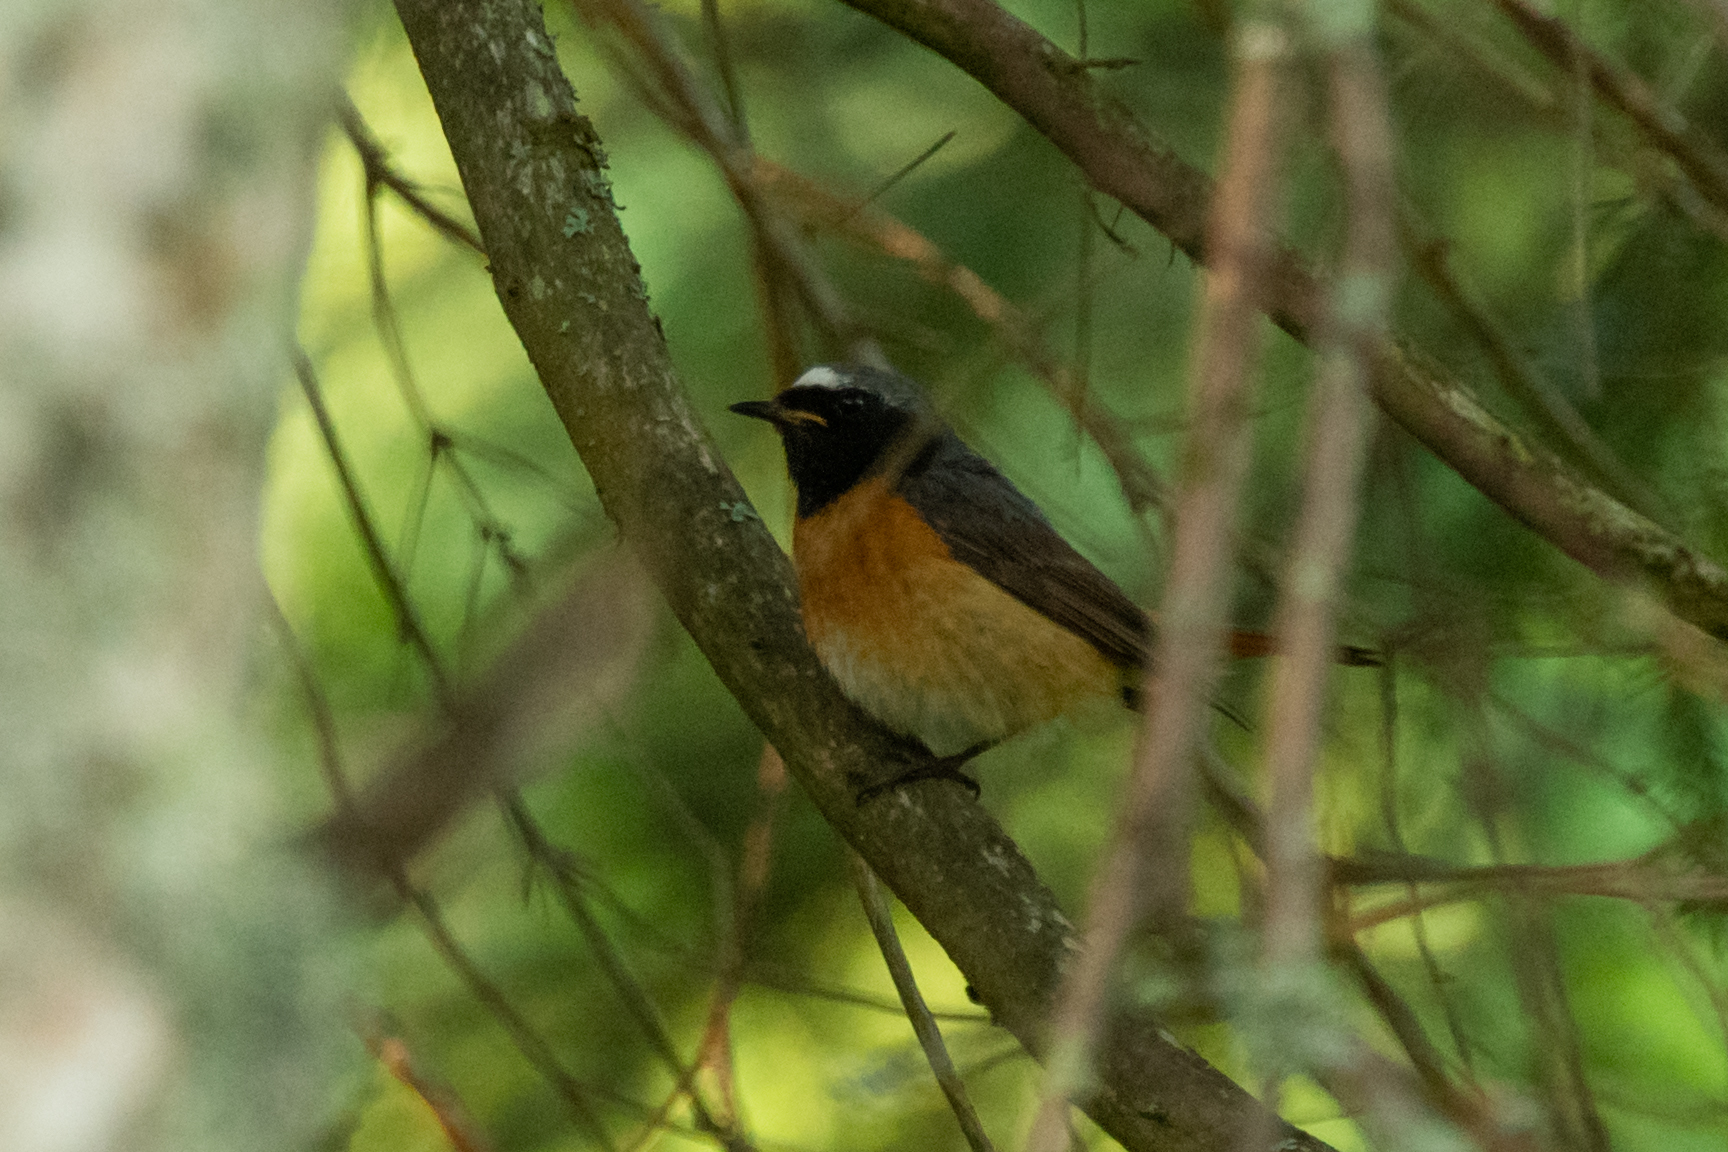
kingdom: Animalia
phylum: Chordata
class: Aves
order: Passeriformes
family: Muscicapidae
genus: Phoenicurus
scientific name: Phoenicurus phoenicurus
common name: Common redstart
